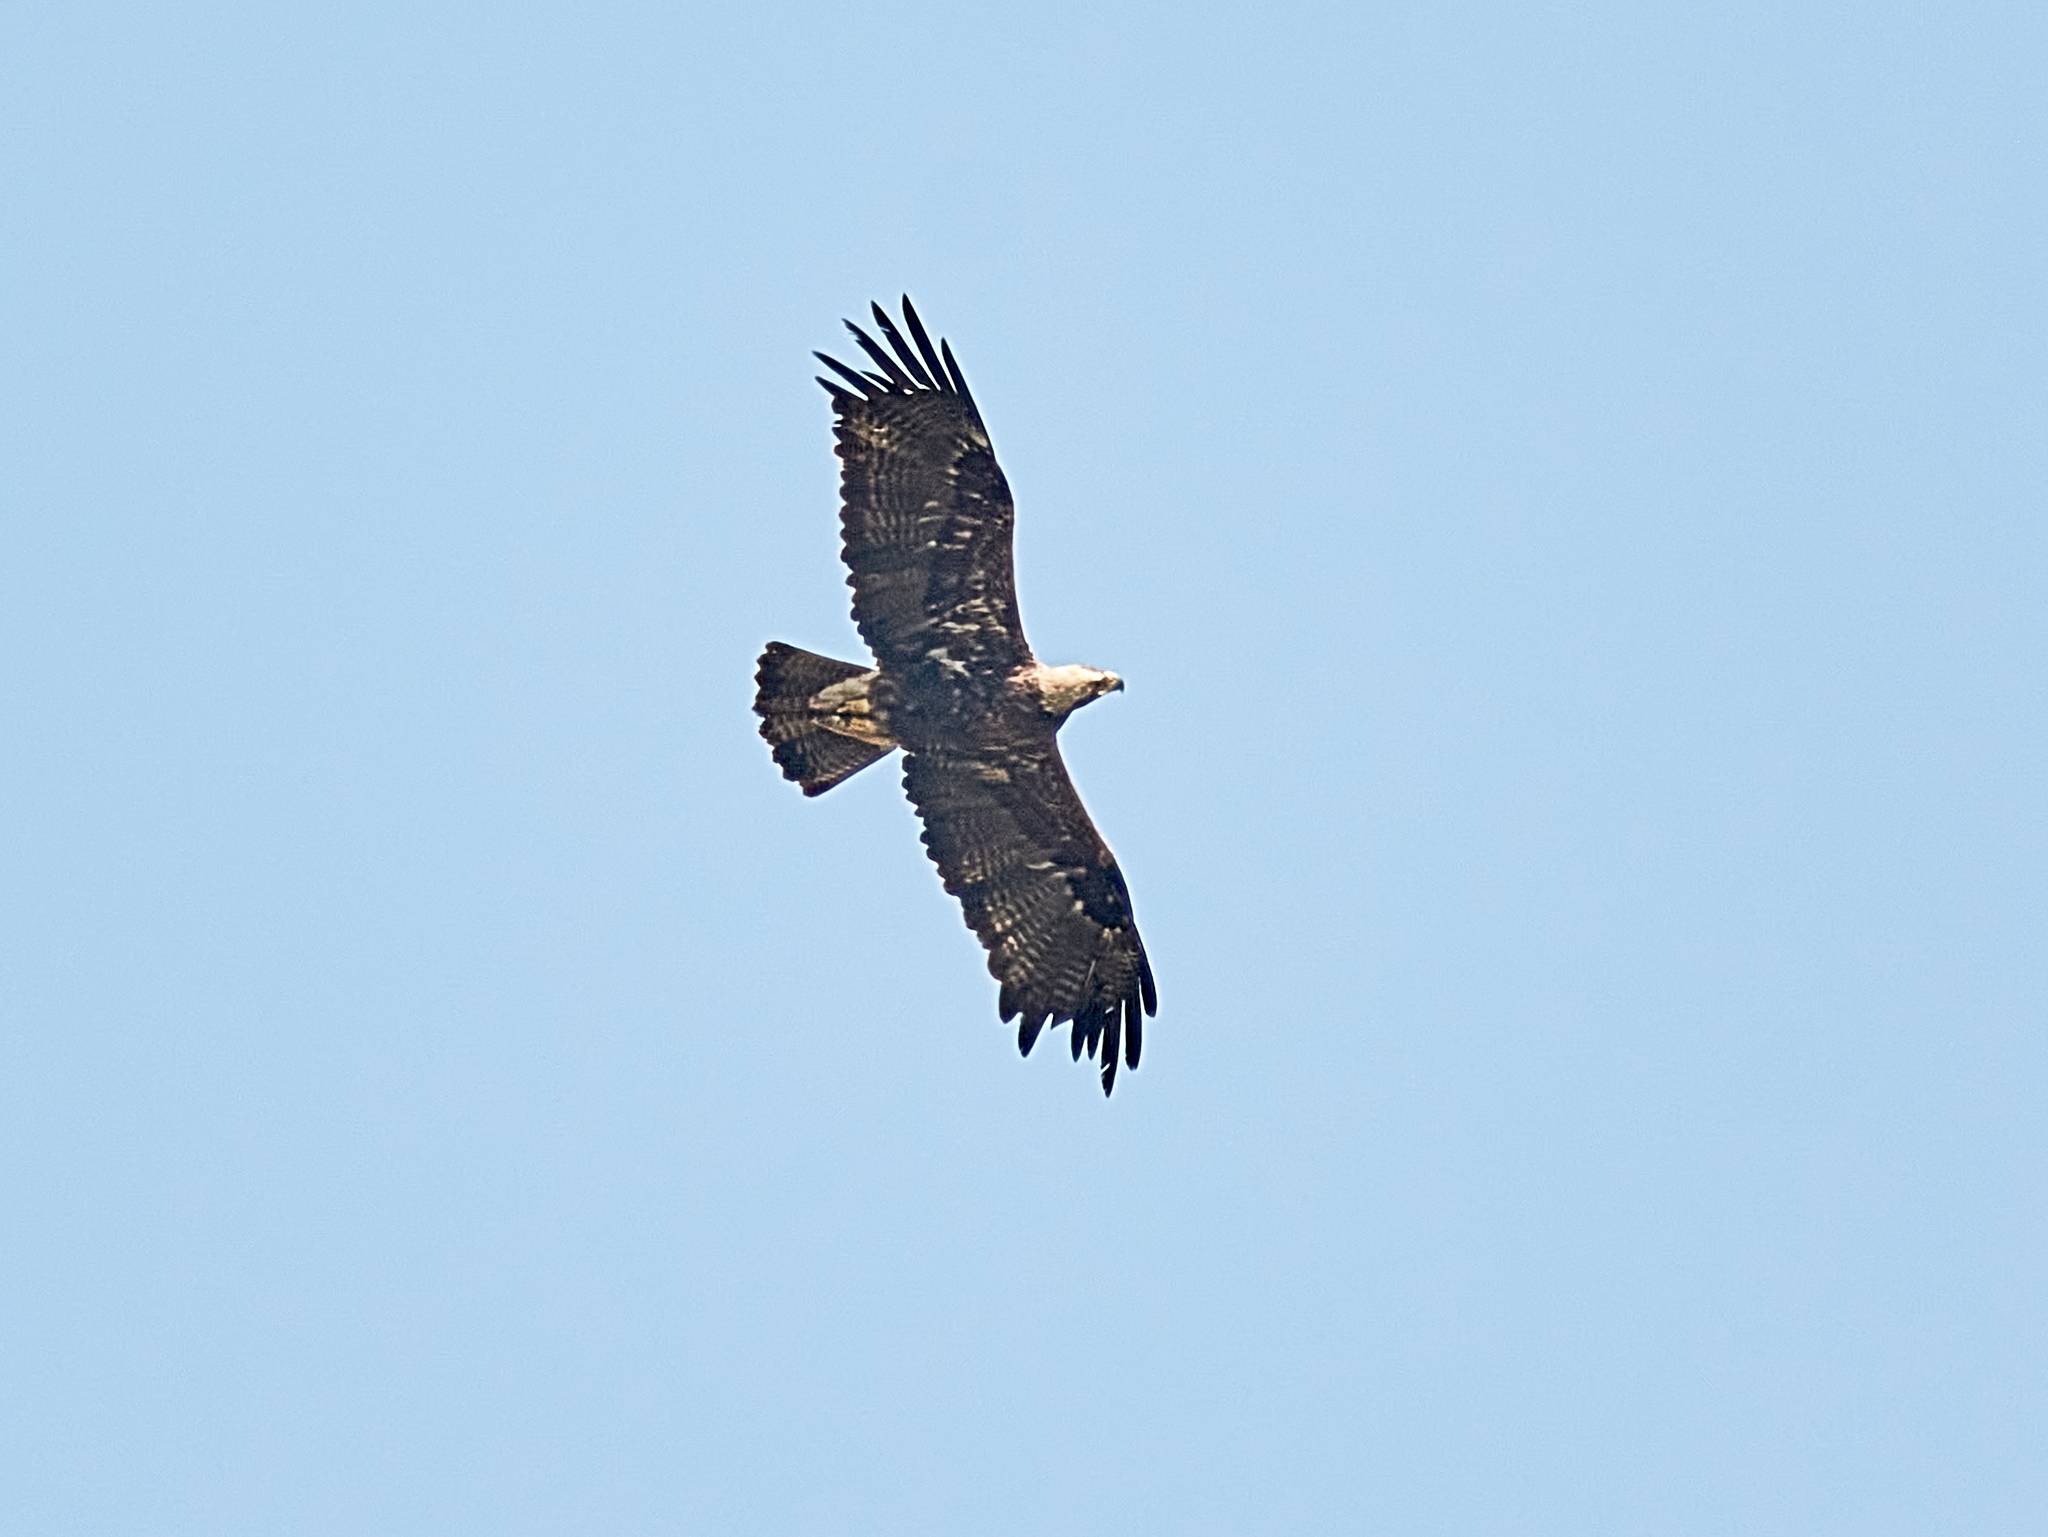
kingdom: Animalia
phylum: Chordata
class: Aves
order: Accipitriformes
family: Accipitridae
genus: Aquila
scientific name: Aquila heliaca
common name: Eastern imperial eagle
